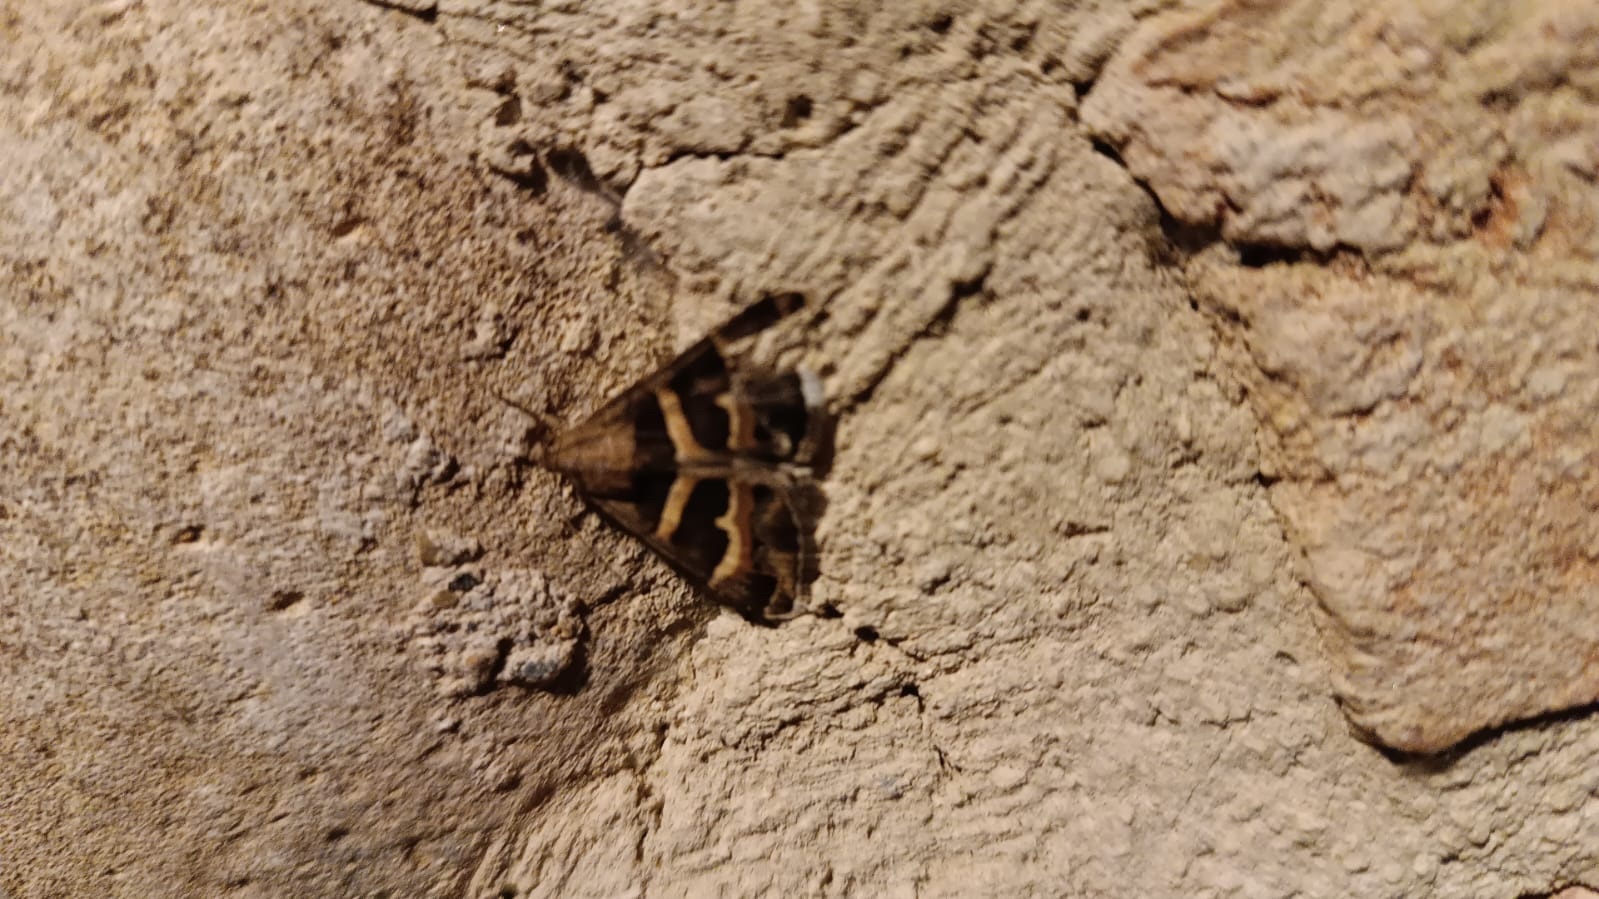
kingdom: Animalia
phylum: Arthropoda
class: Insecta
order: Lepidoptera
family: Erebidae
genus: Grammodes
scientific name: Grammodes stolida
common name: Geometrician
